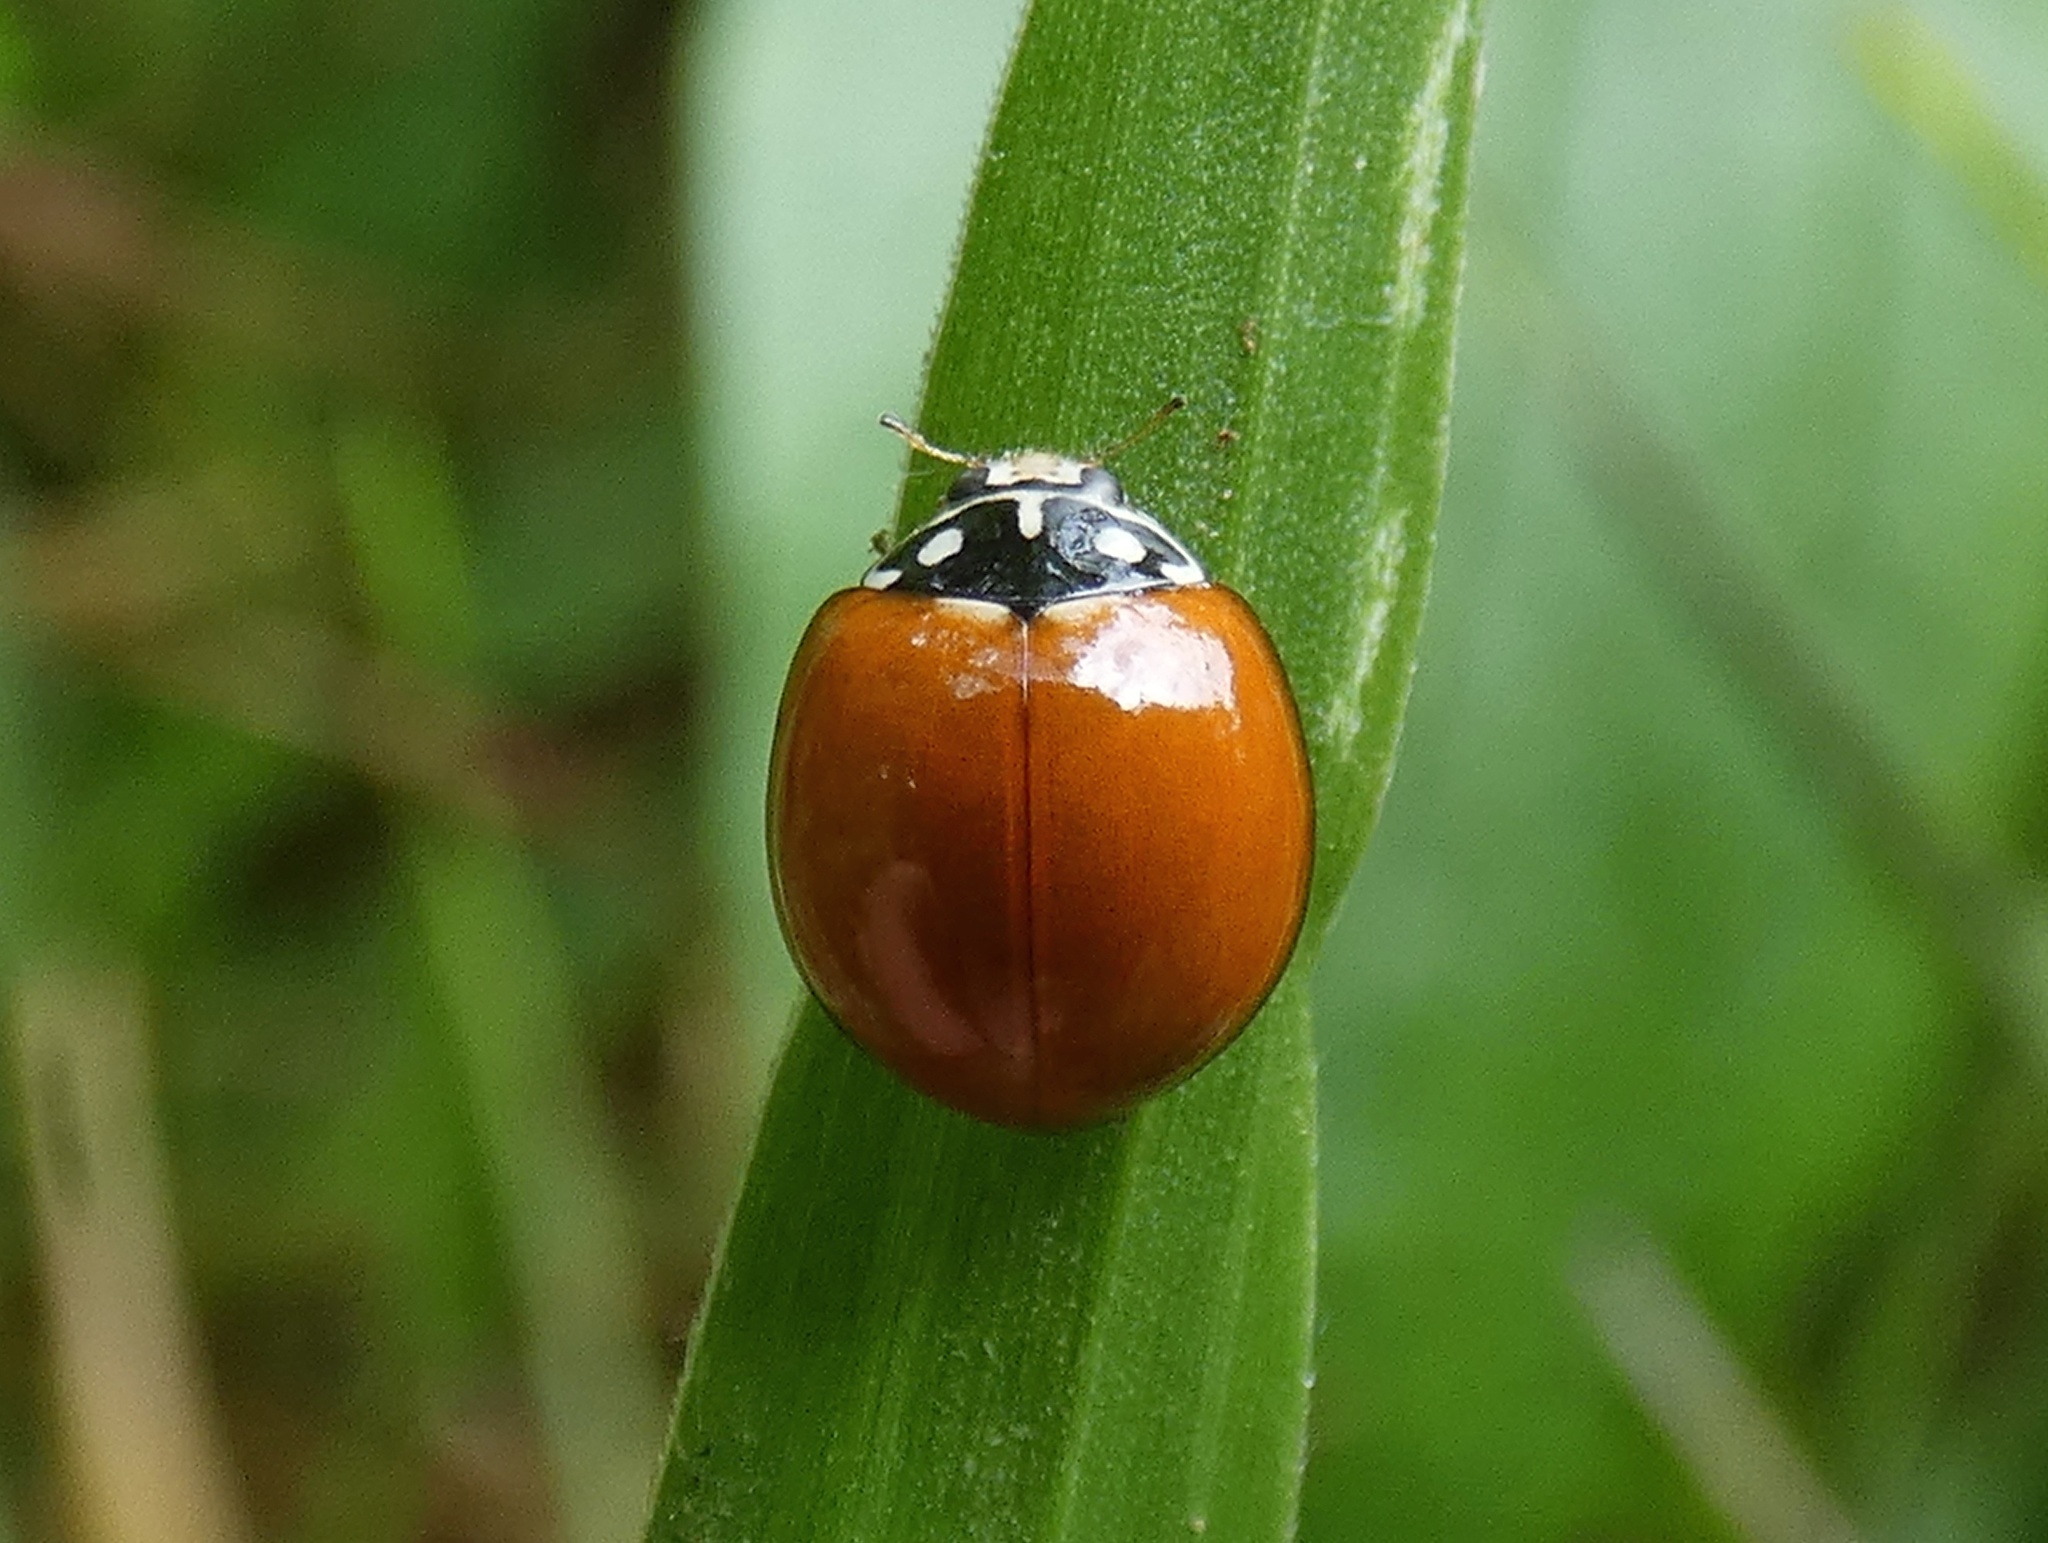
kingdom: Animalia
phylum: Arthropoda
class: Insecta
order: Coleoptera
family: Coccinellidae
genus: Cycloneda
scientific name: Cycloneda sanguinea
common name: Ladybird beetle
